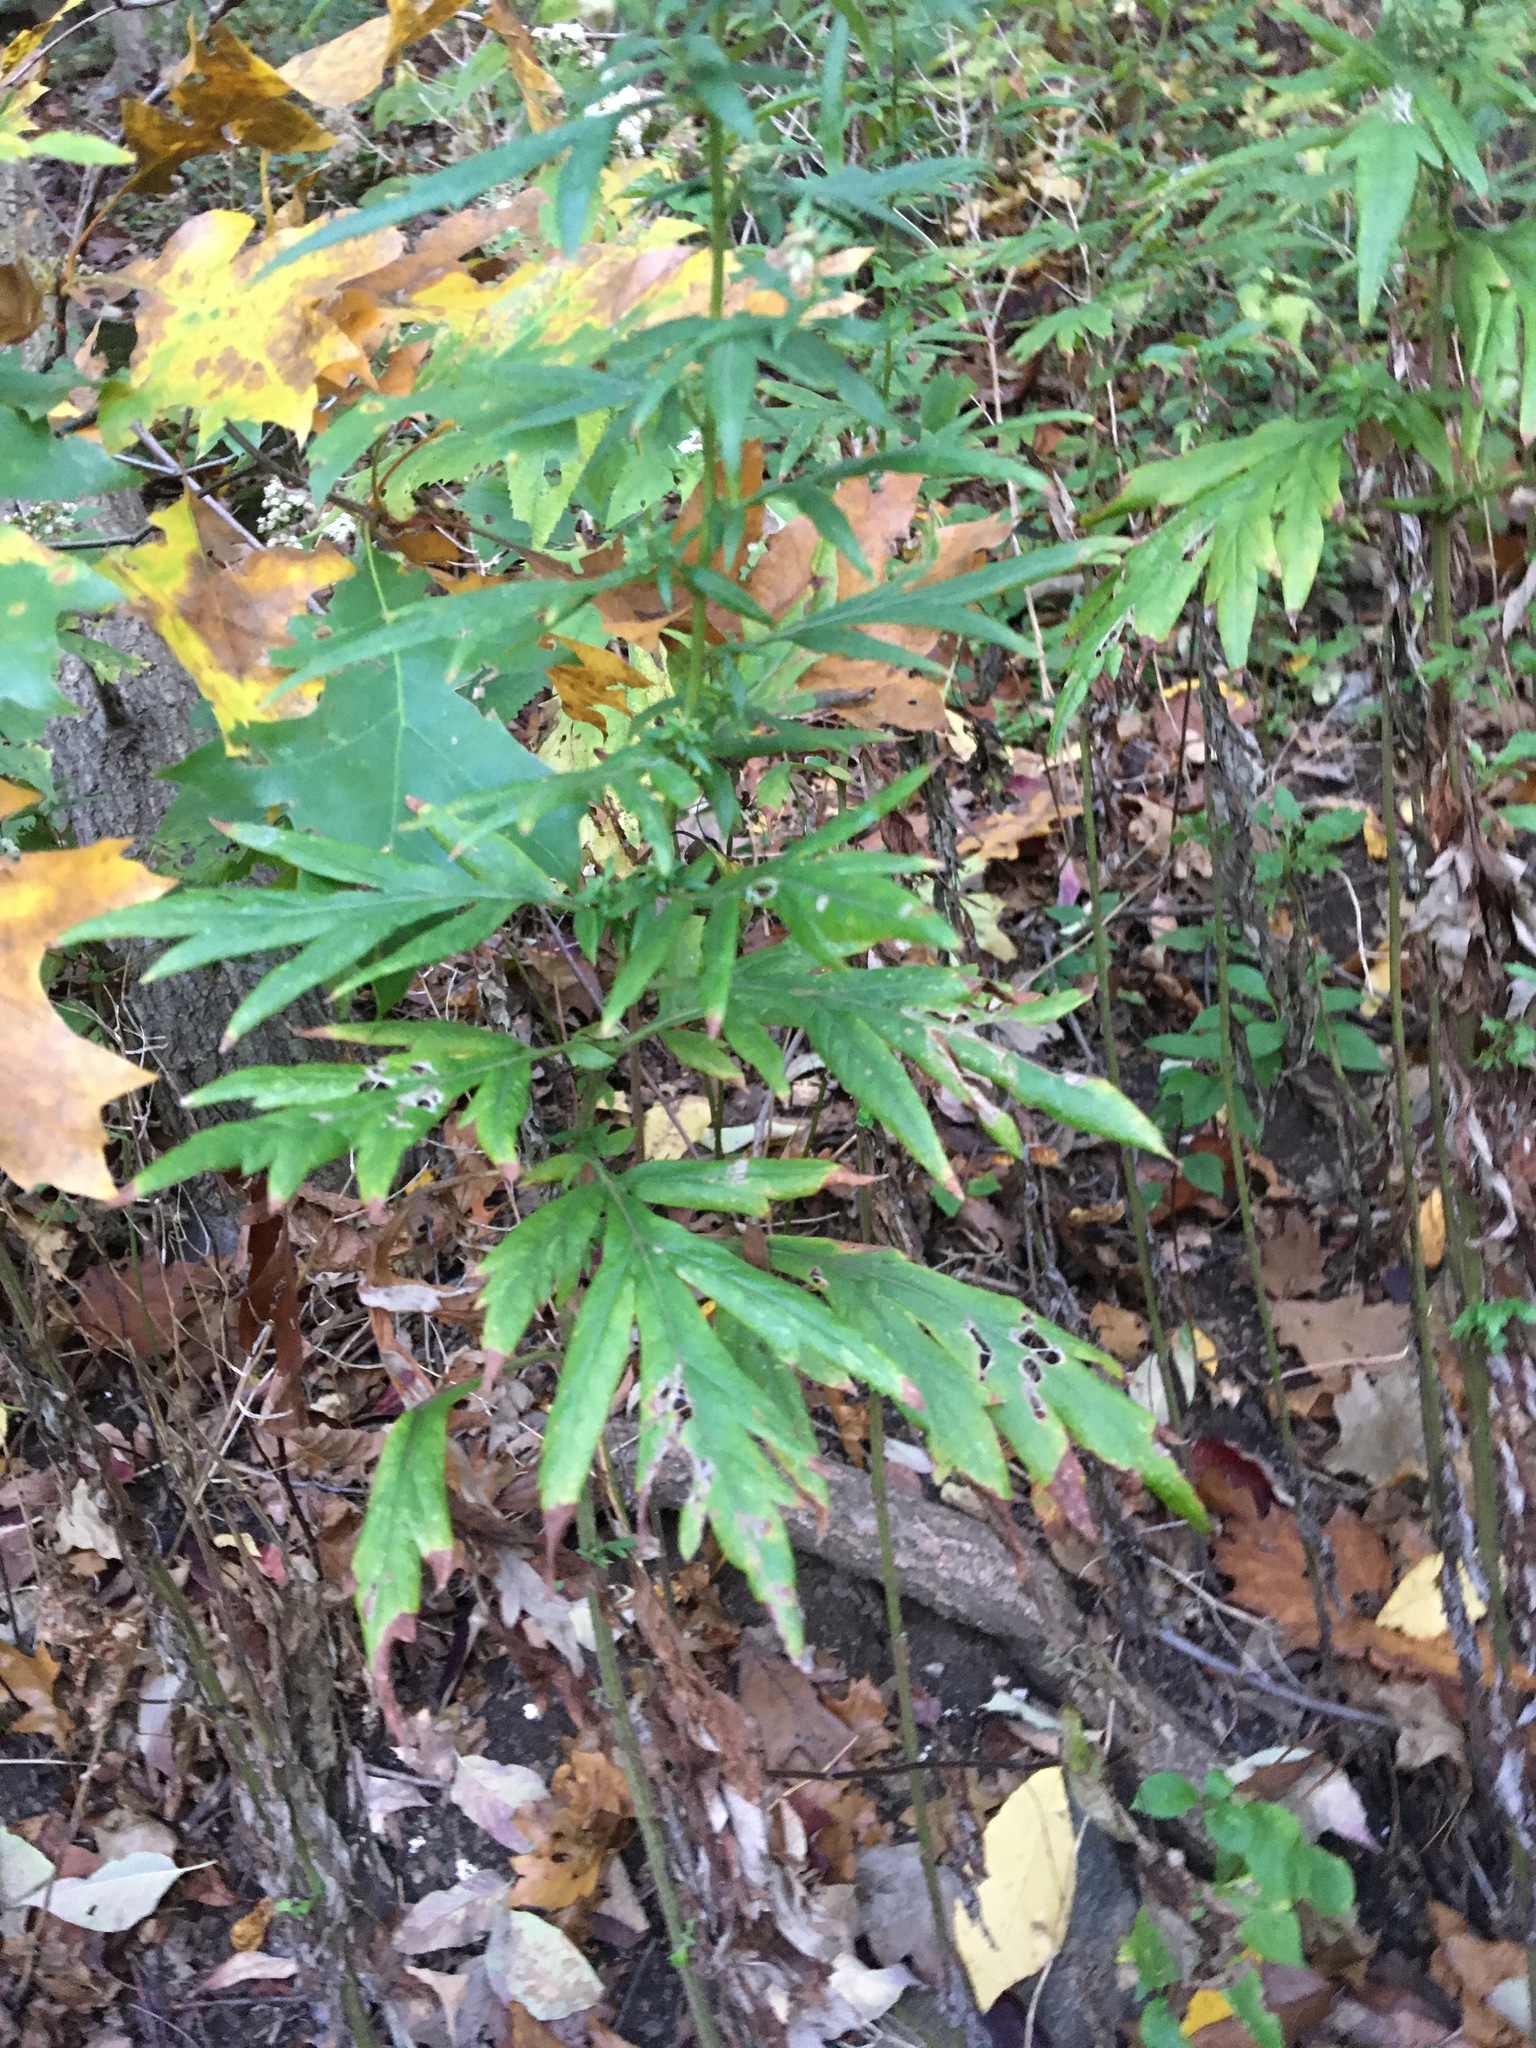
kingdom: Plantae
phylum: Tracheophyta
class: Magnoliopsida
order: Asterales
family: Asteraceae
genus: Artemisia
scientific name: Artemisia vulgaris
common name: Mugwort
